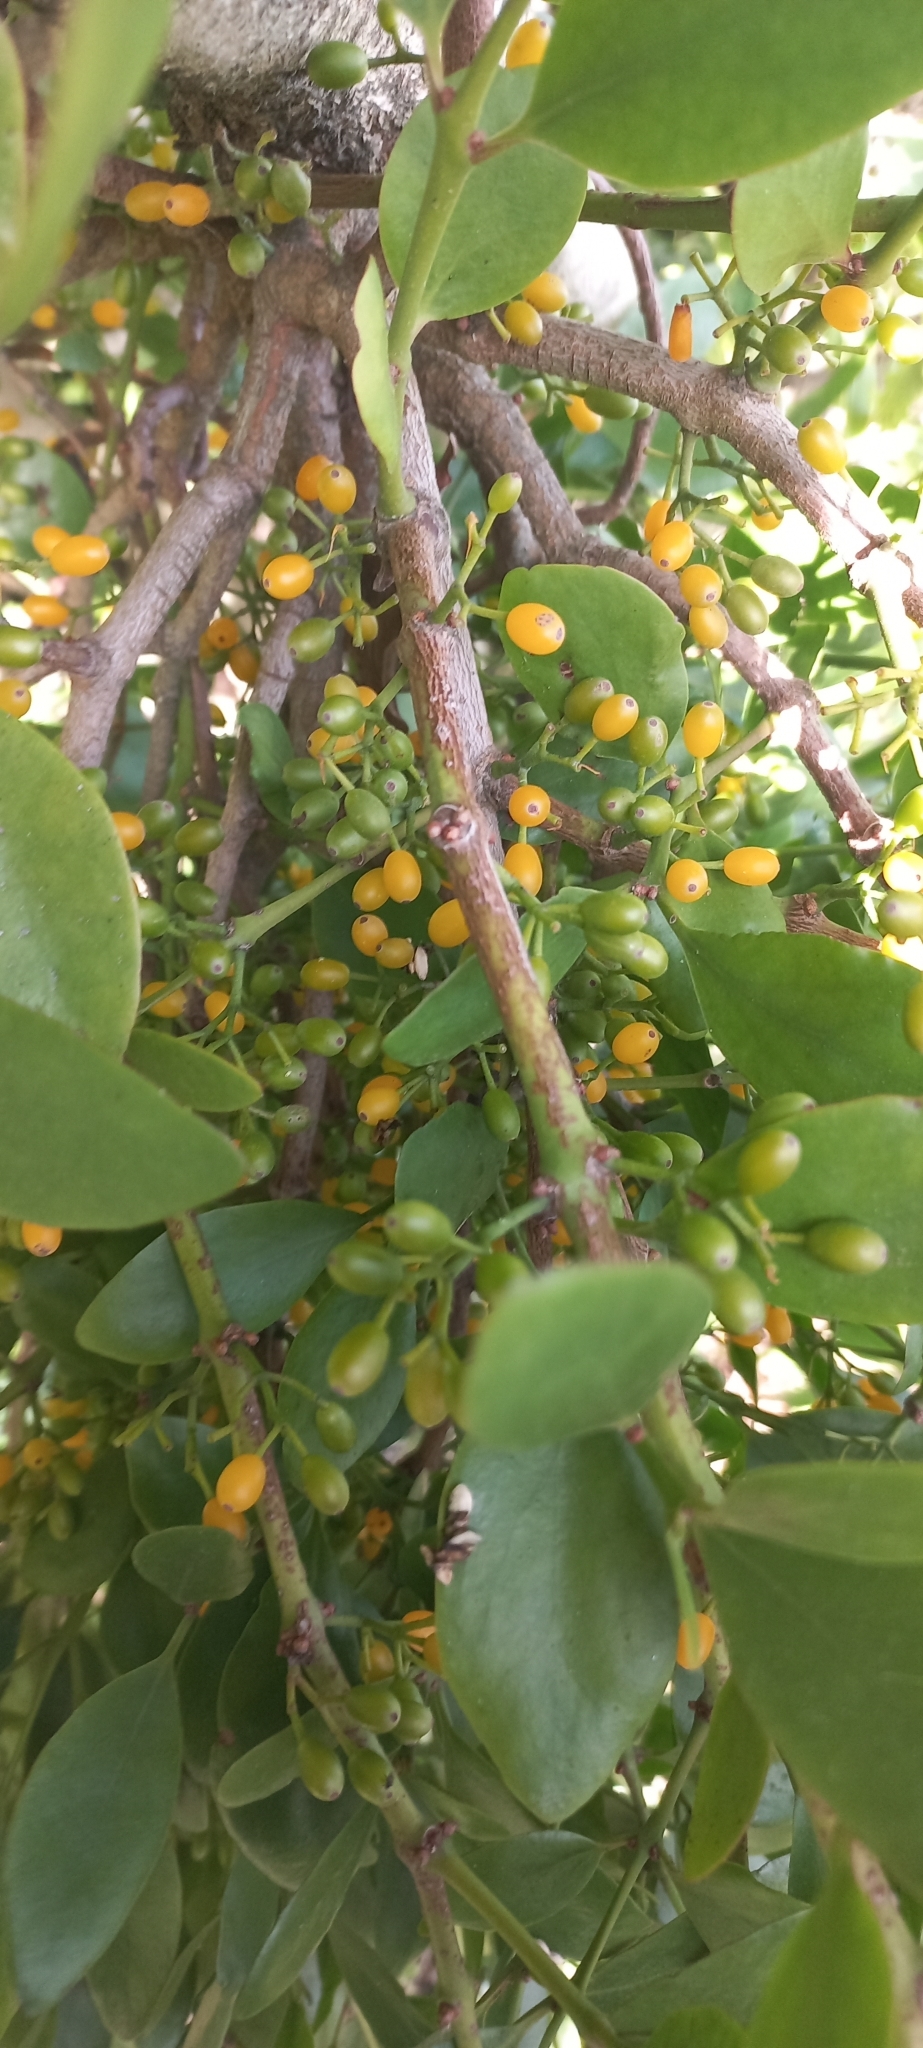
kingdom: Plantae
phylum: Tracheophyta
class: Magnoliopsida
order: Santalales
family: Loranthaceae
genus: Ileostylus
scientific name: Ileostylus micranthus
